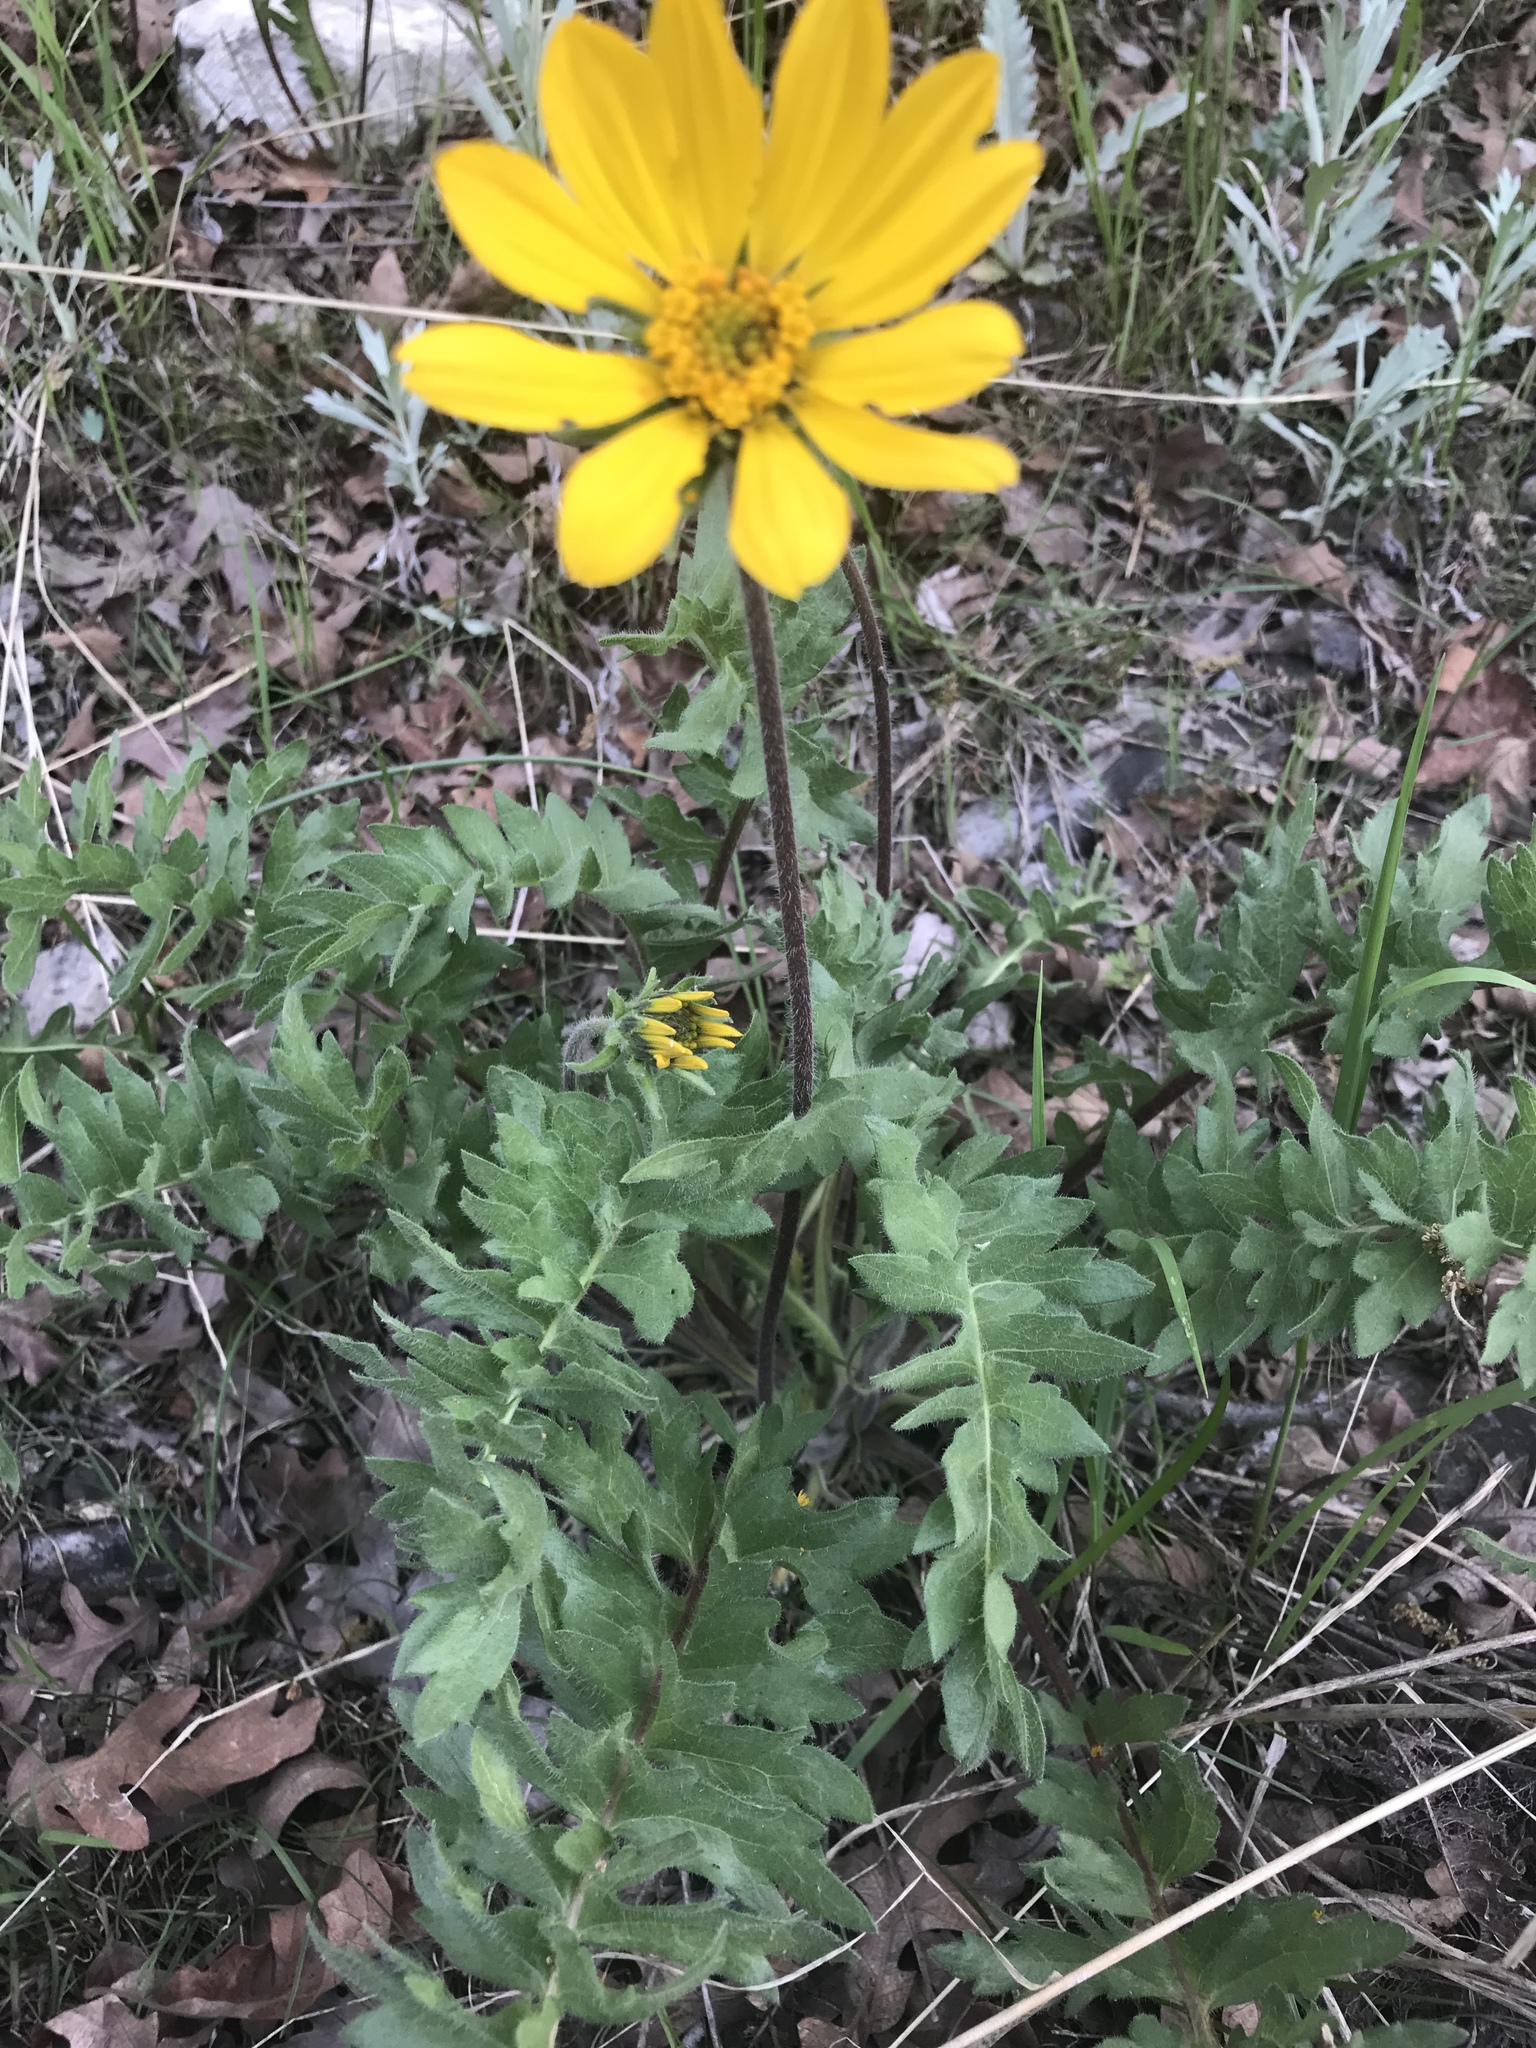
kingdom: Plantae
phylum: Tracheophyta
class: Magnoliopsida
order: Asterales
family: Asteraceae
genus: Balsamorhiza
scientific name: Balsamorhiza hookeri
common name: Hooker's balsamroot
